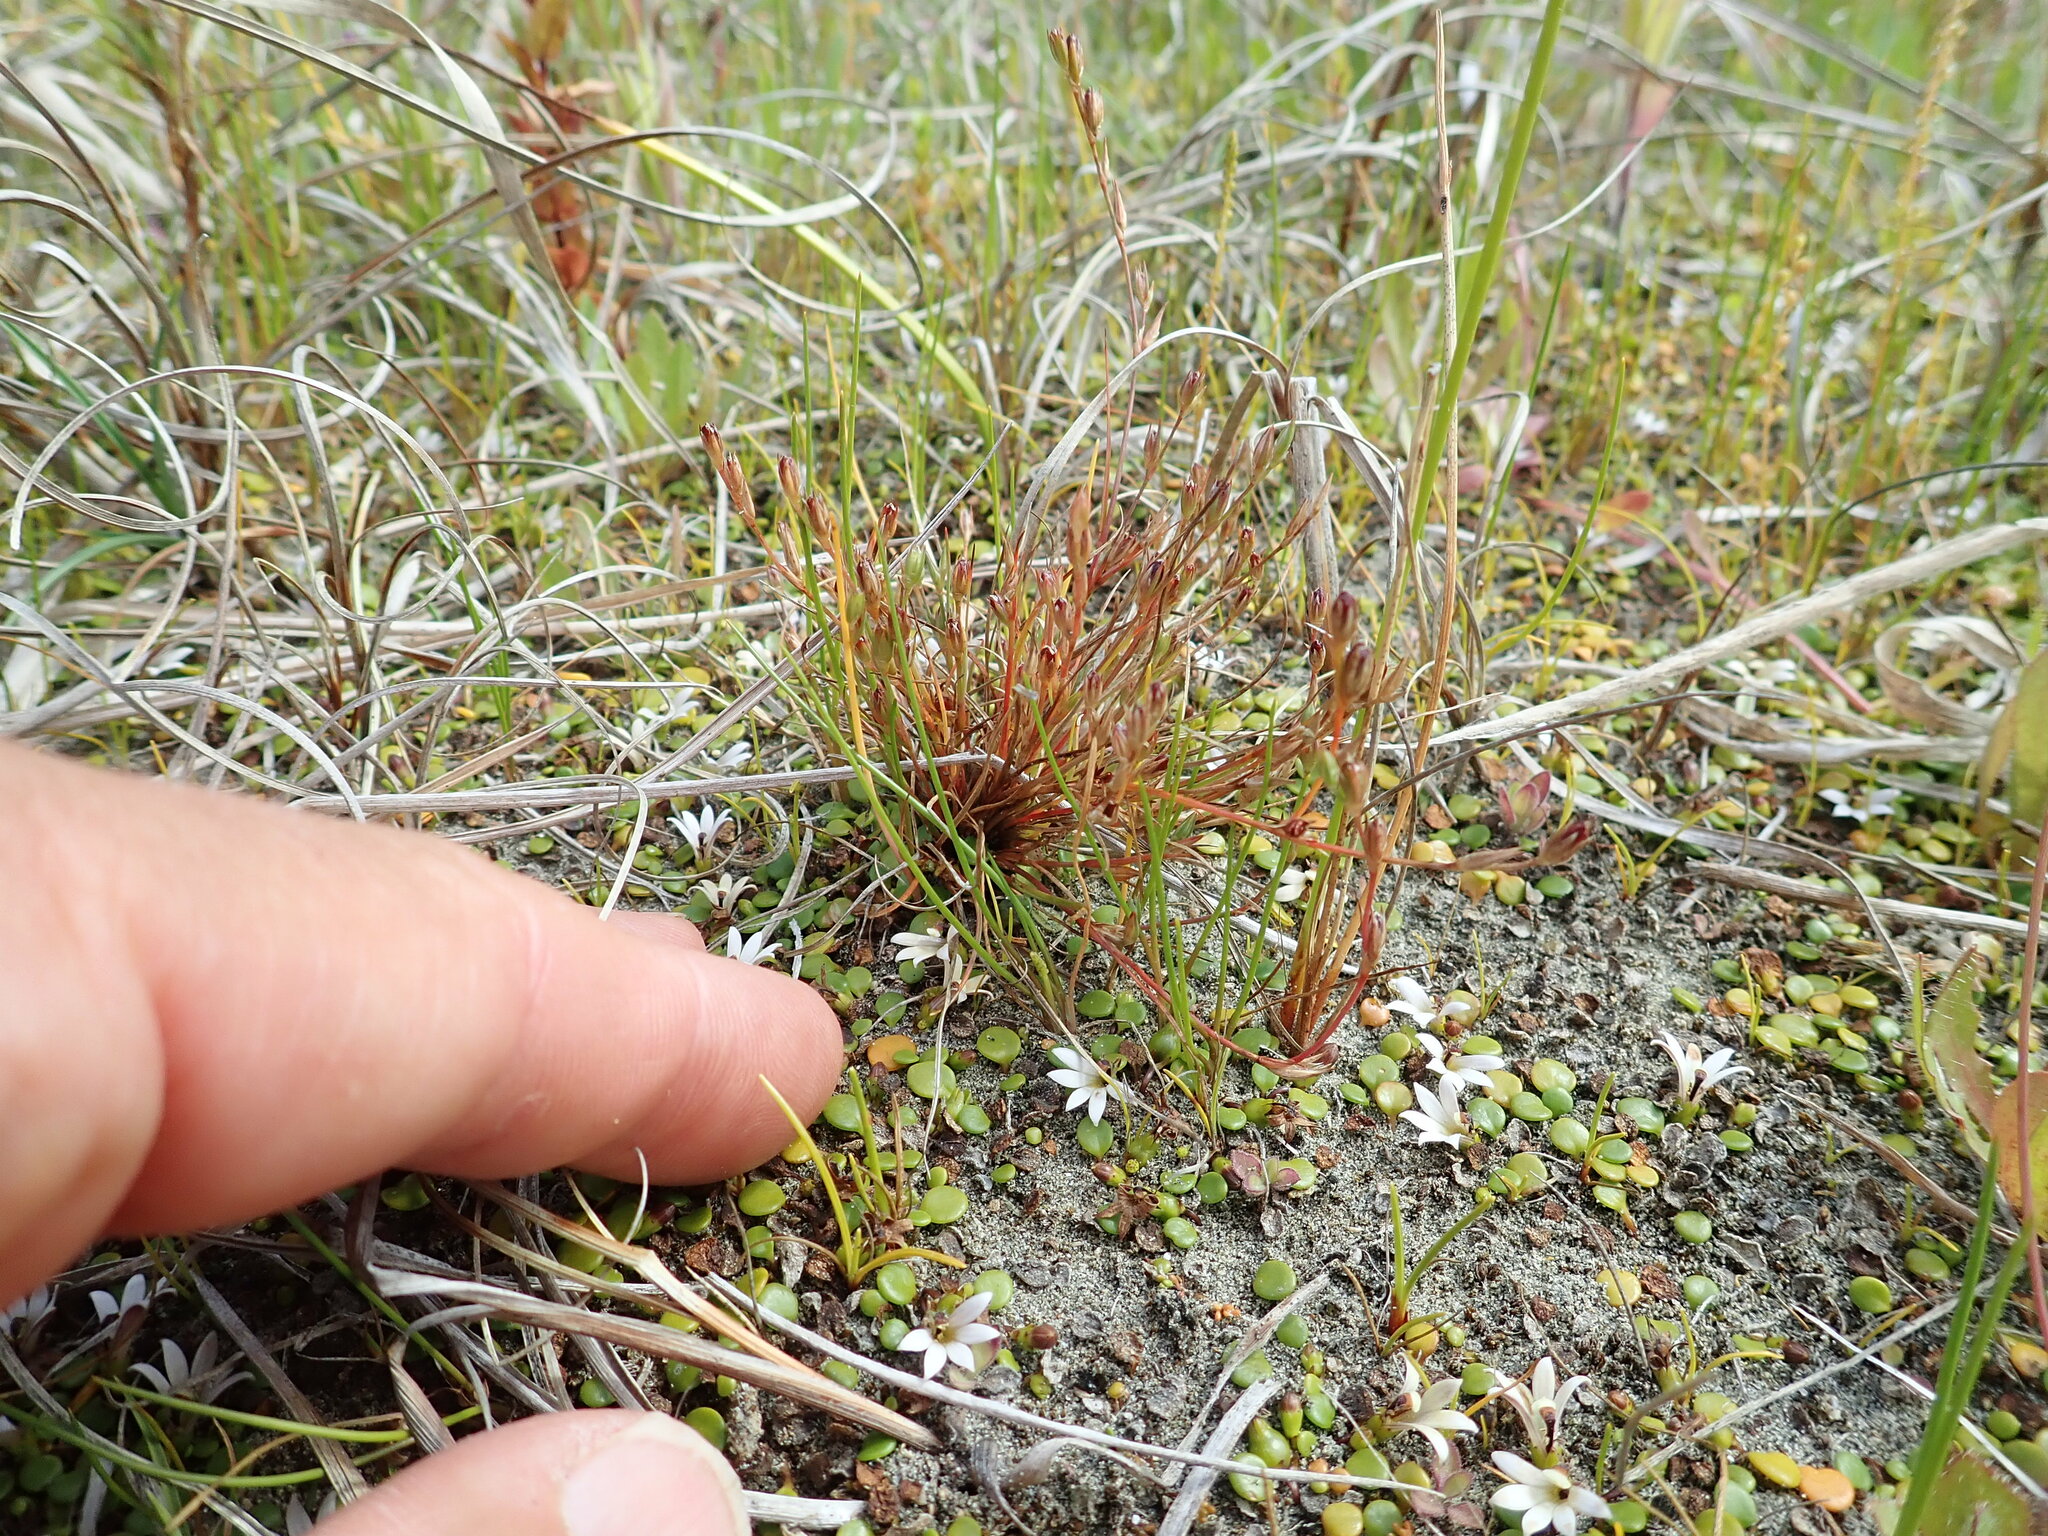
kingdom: Plantae
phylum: Tracheophyta
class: Liliopsida
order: Poales
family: Juncaceae
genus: Juncus
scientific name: Juncus bufonius
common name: Toad rush
